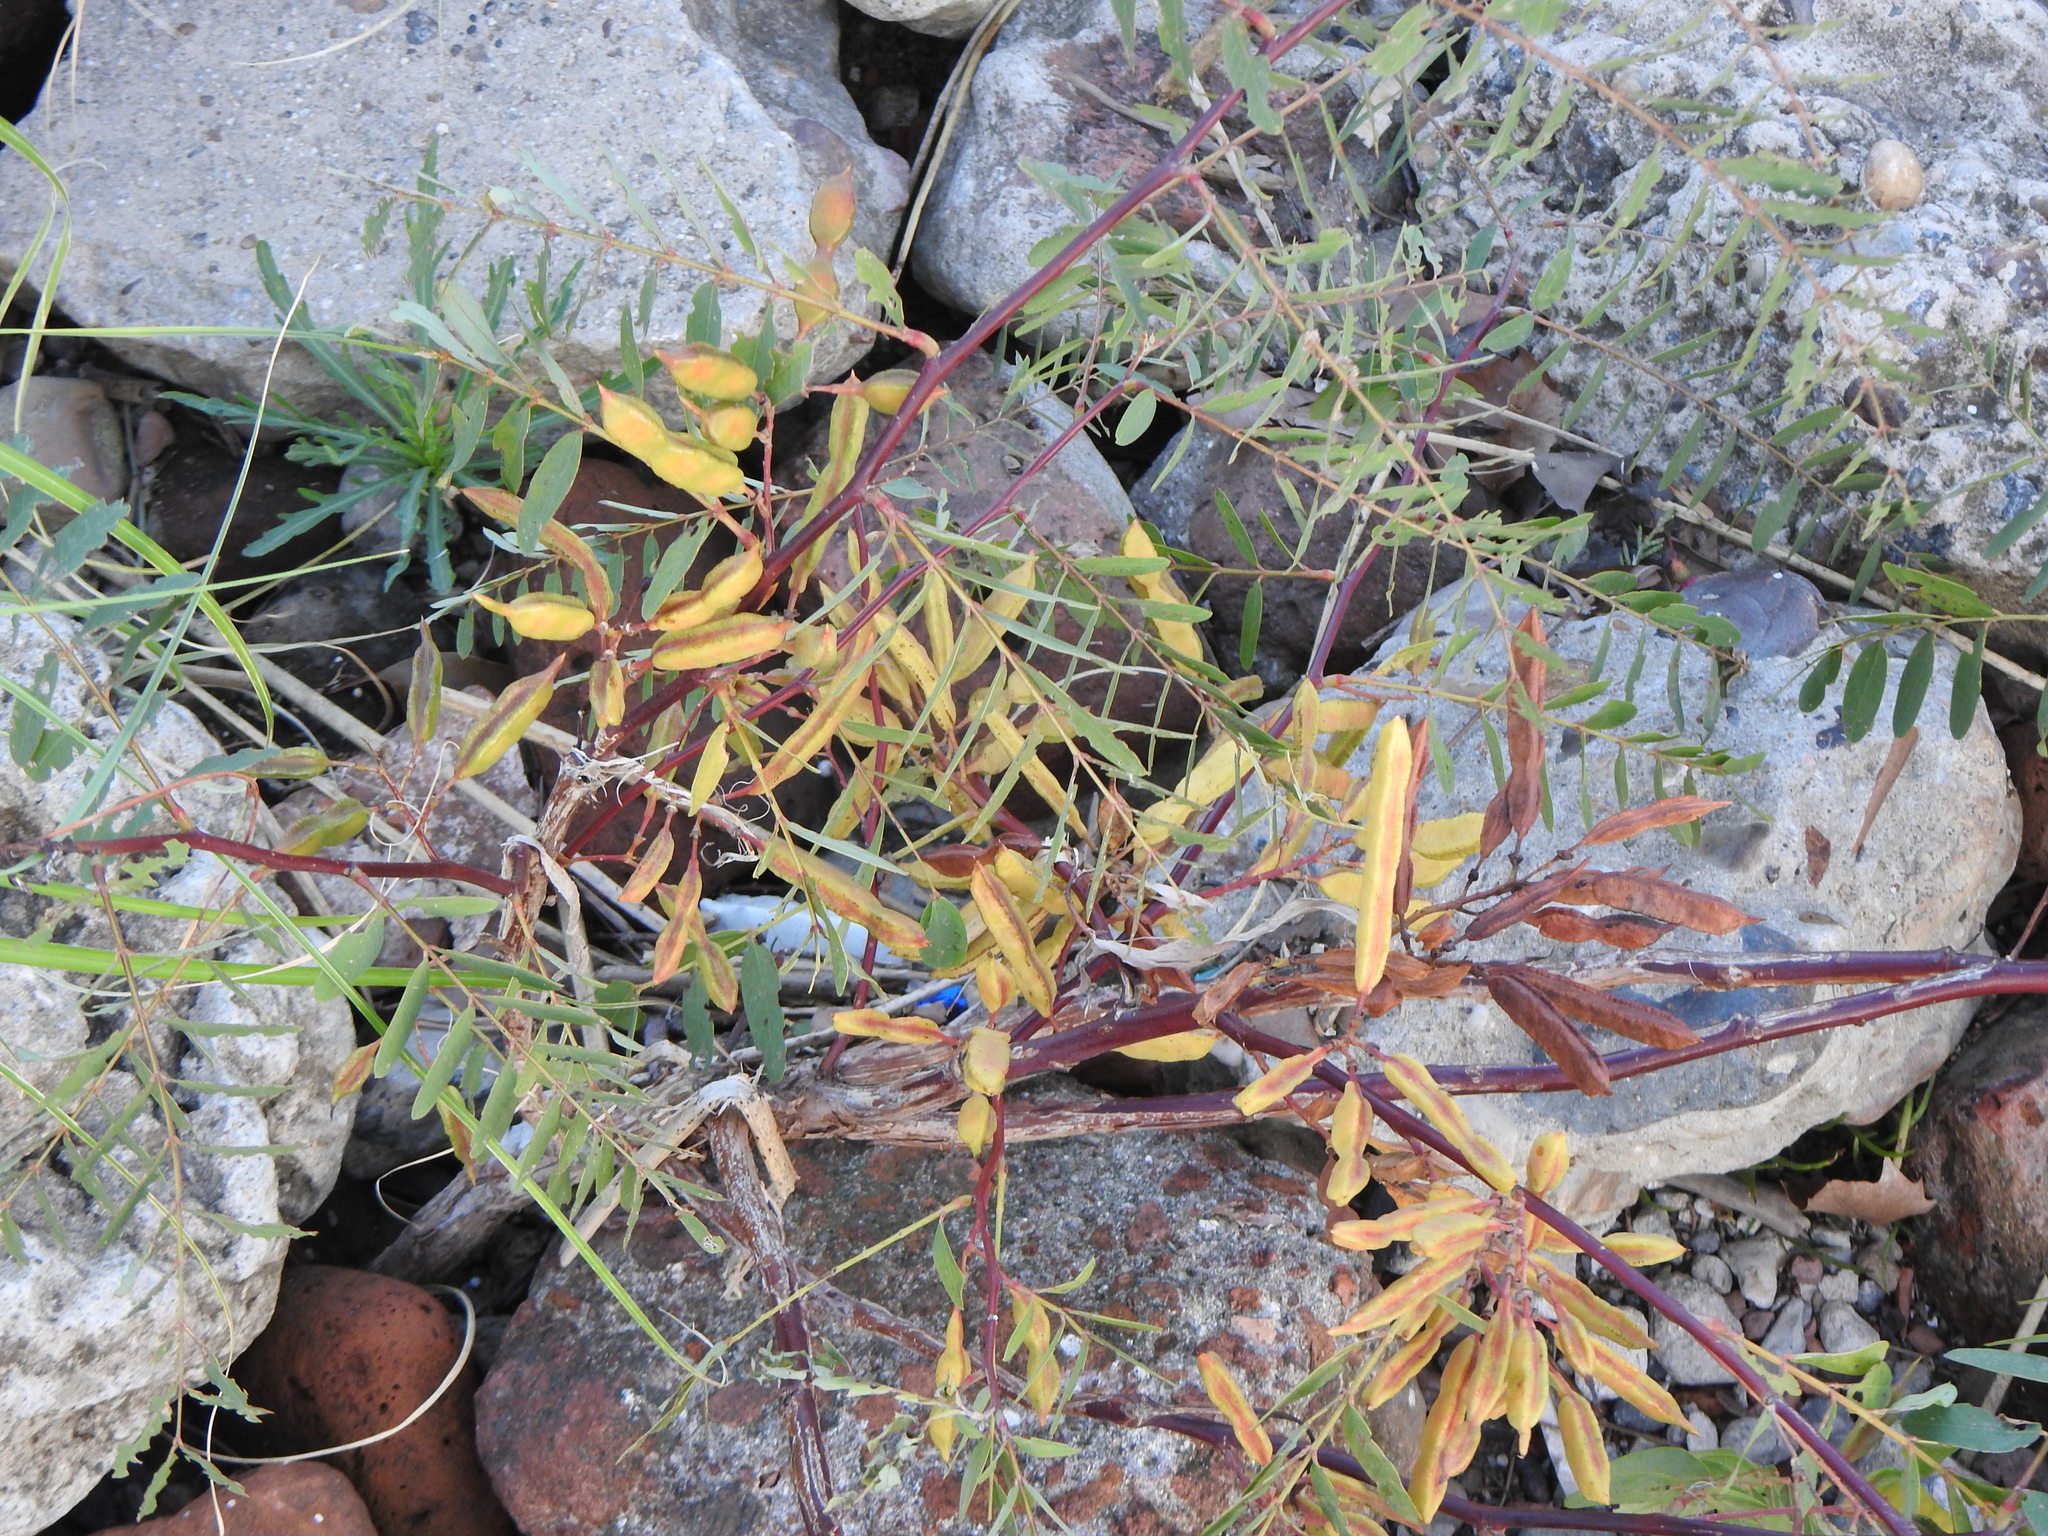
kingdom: Plantae
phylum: Tracheophyta
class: Magnoliopsida
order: Fabales
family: Fabaceae
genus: Sesbania
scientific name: Sesbania virgata
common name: Wand riverhemp
